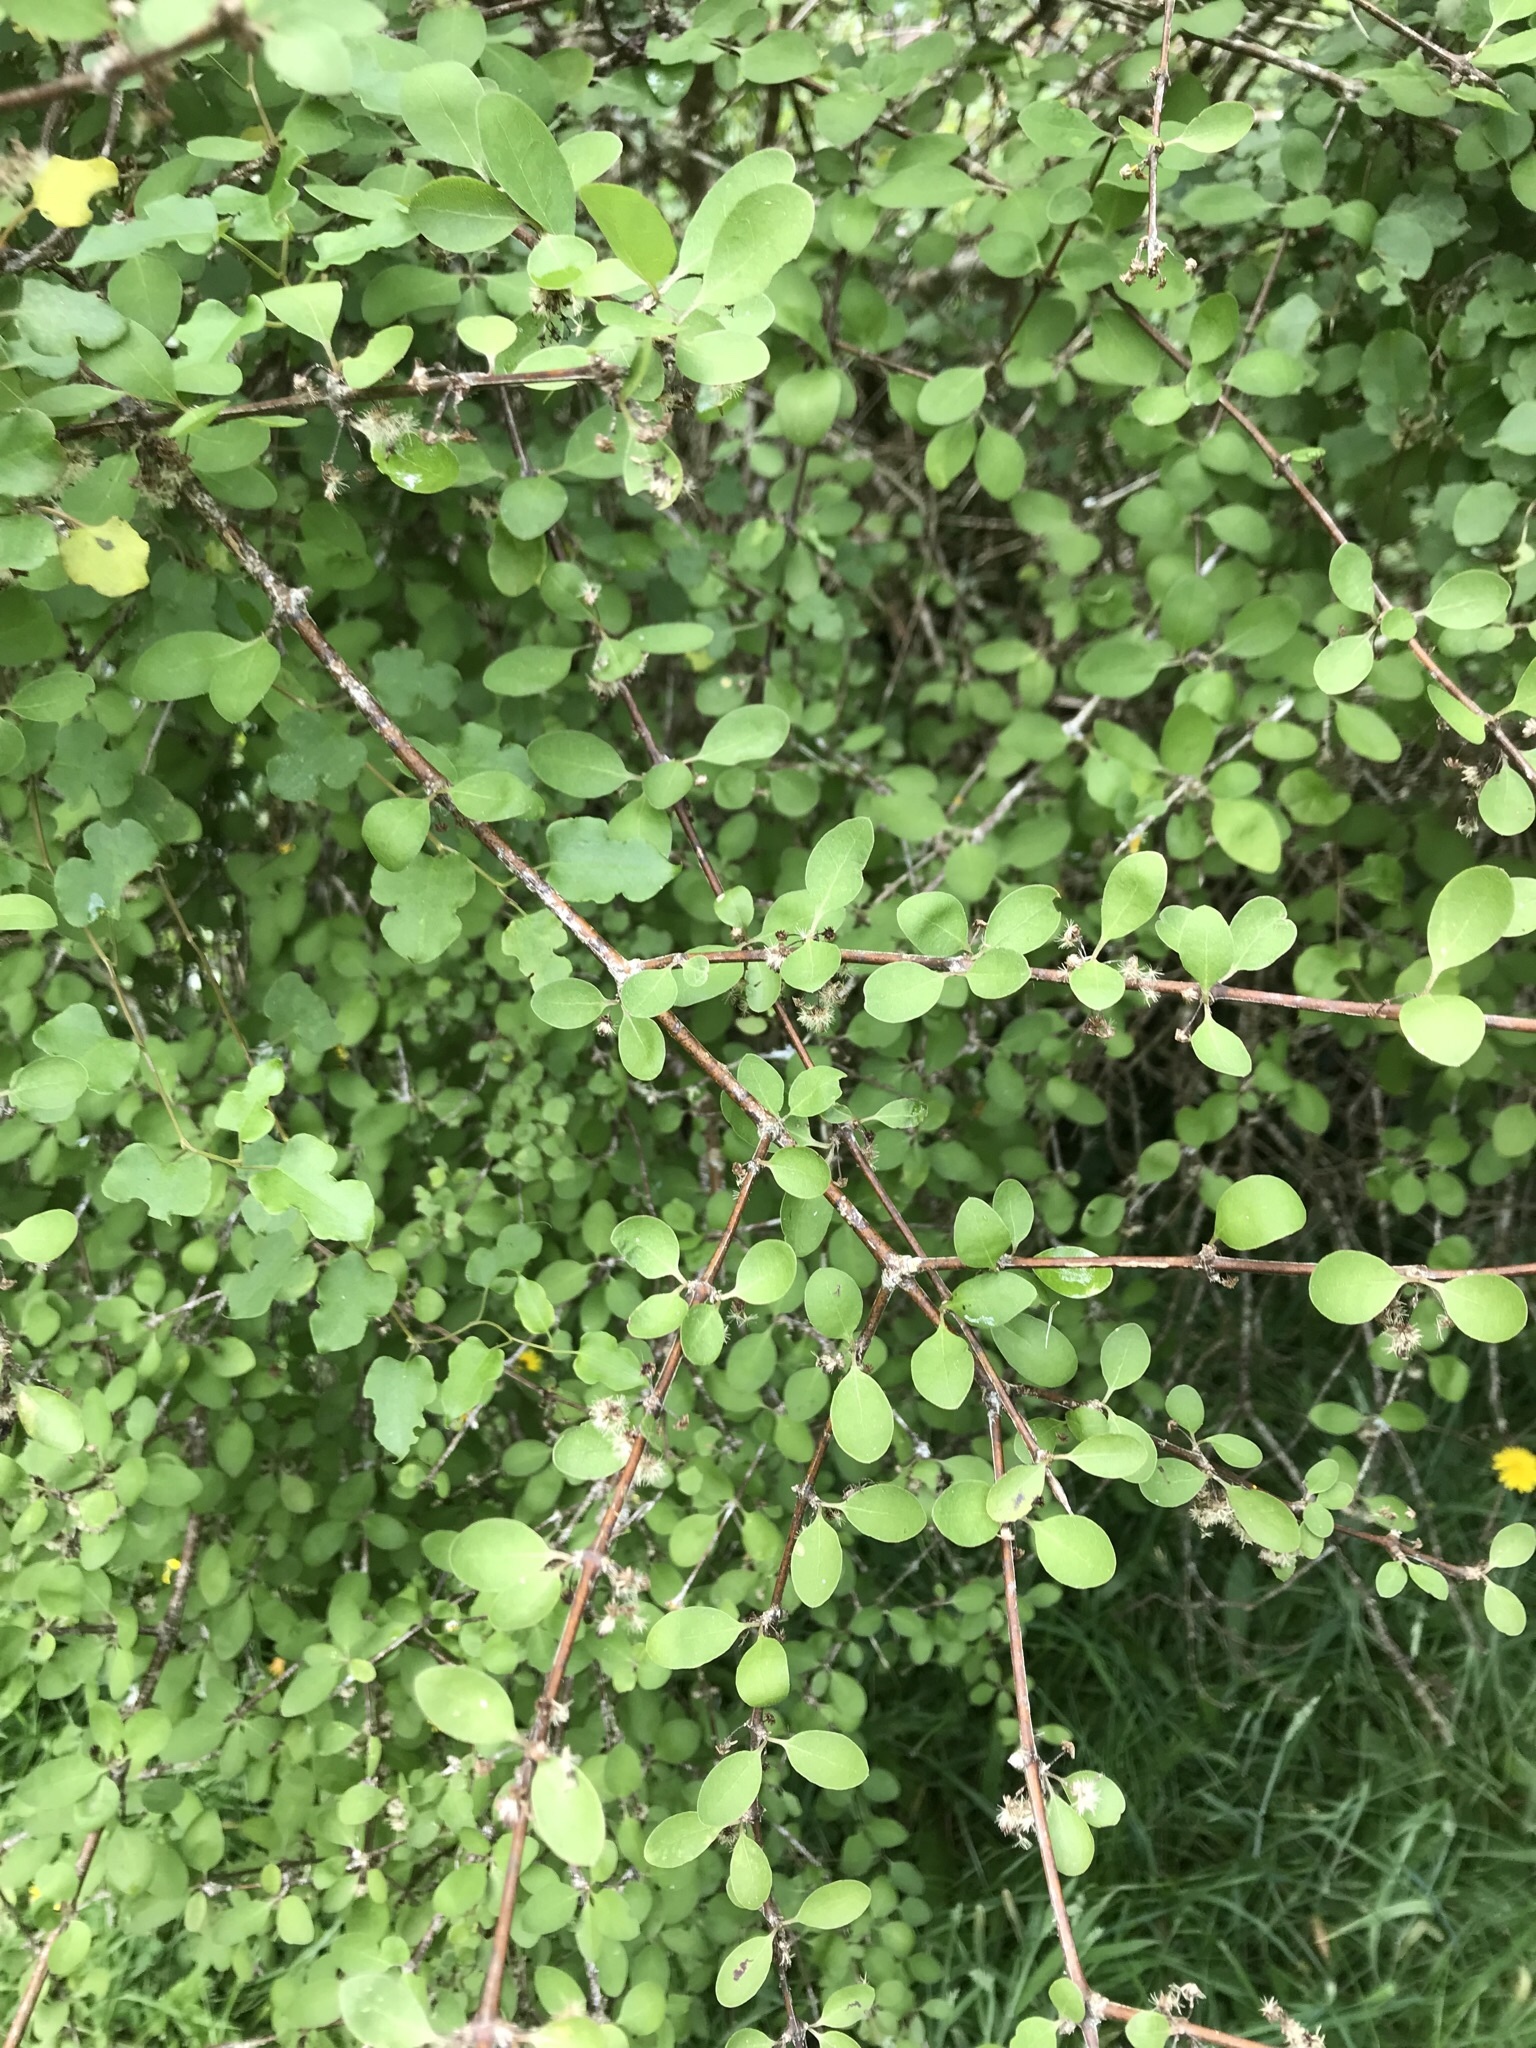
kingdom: Plantae
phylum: Tracheophyta
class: Magnoliopsida
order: Asterales
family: Asteraceae
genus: Olearia
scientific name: Olearia gardneri
